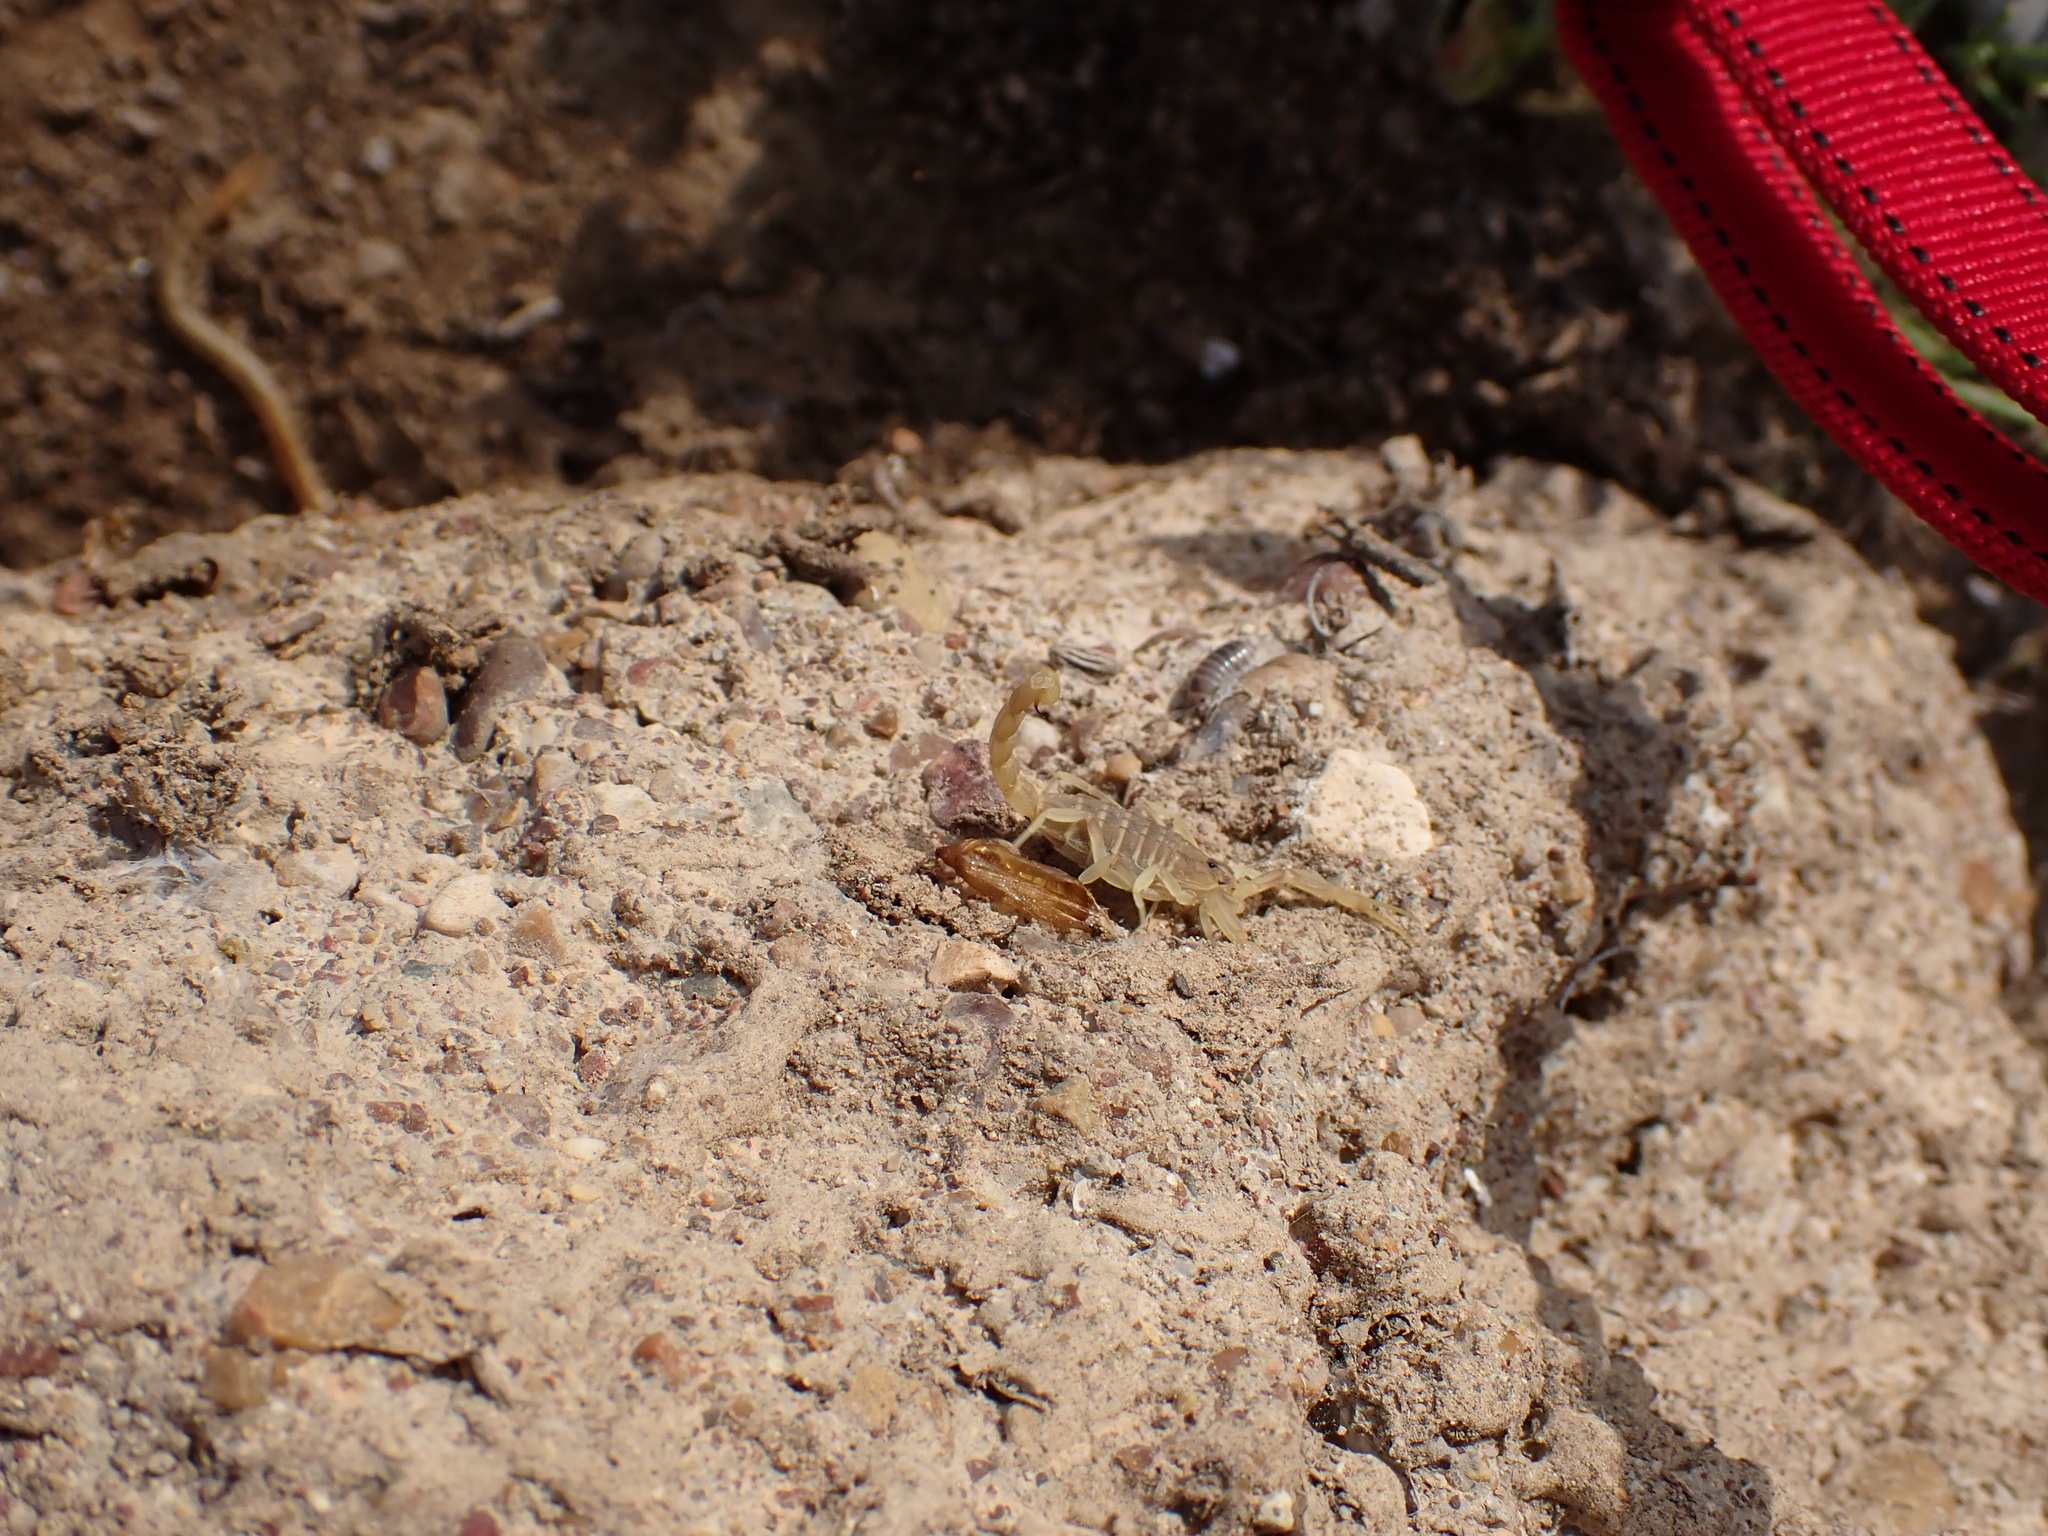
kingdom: Animalia
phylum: Arthropoda
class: Arachnida
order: Scorpiones
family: Buthidae
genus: Compsobuthus
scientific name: Compsobuthus jakesi
